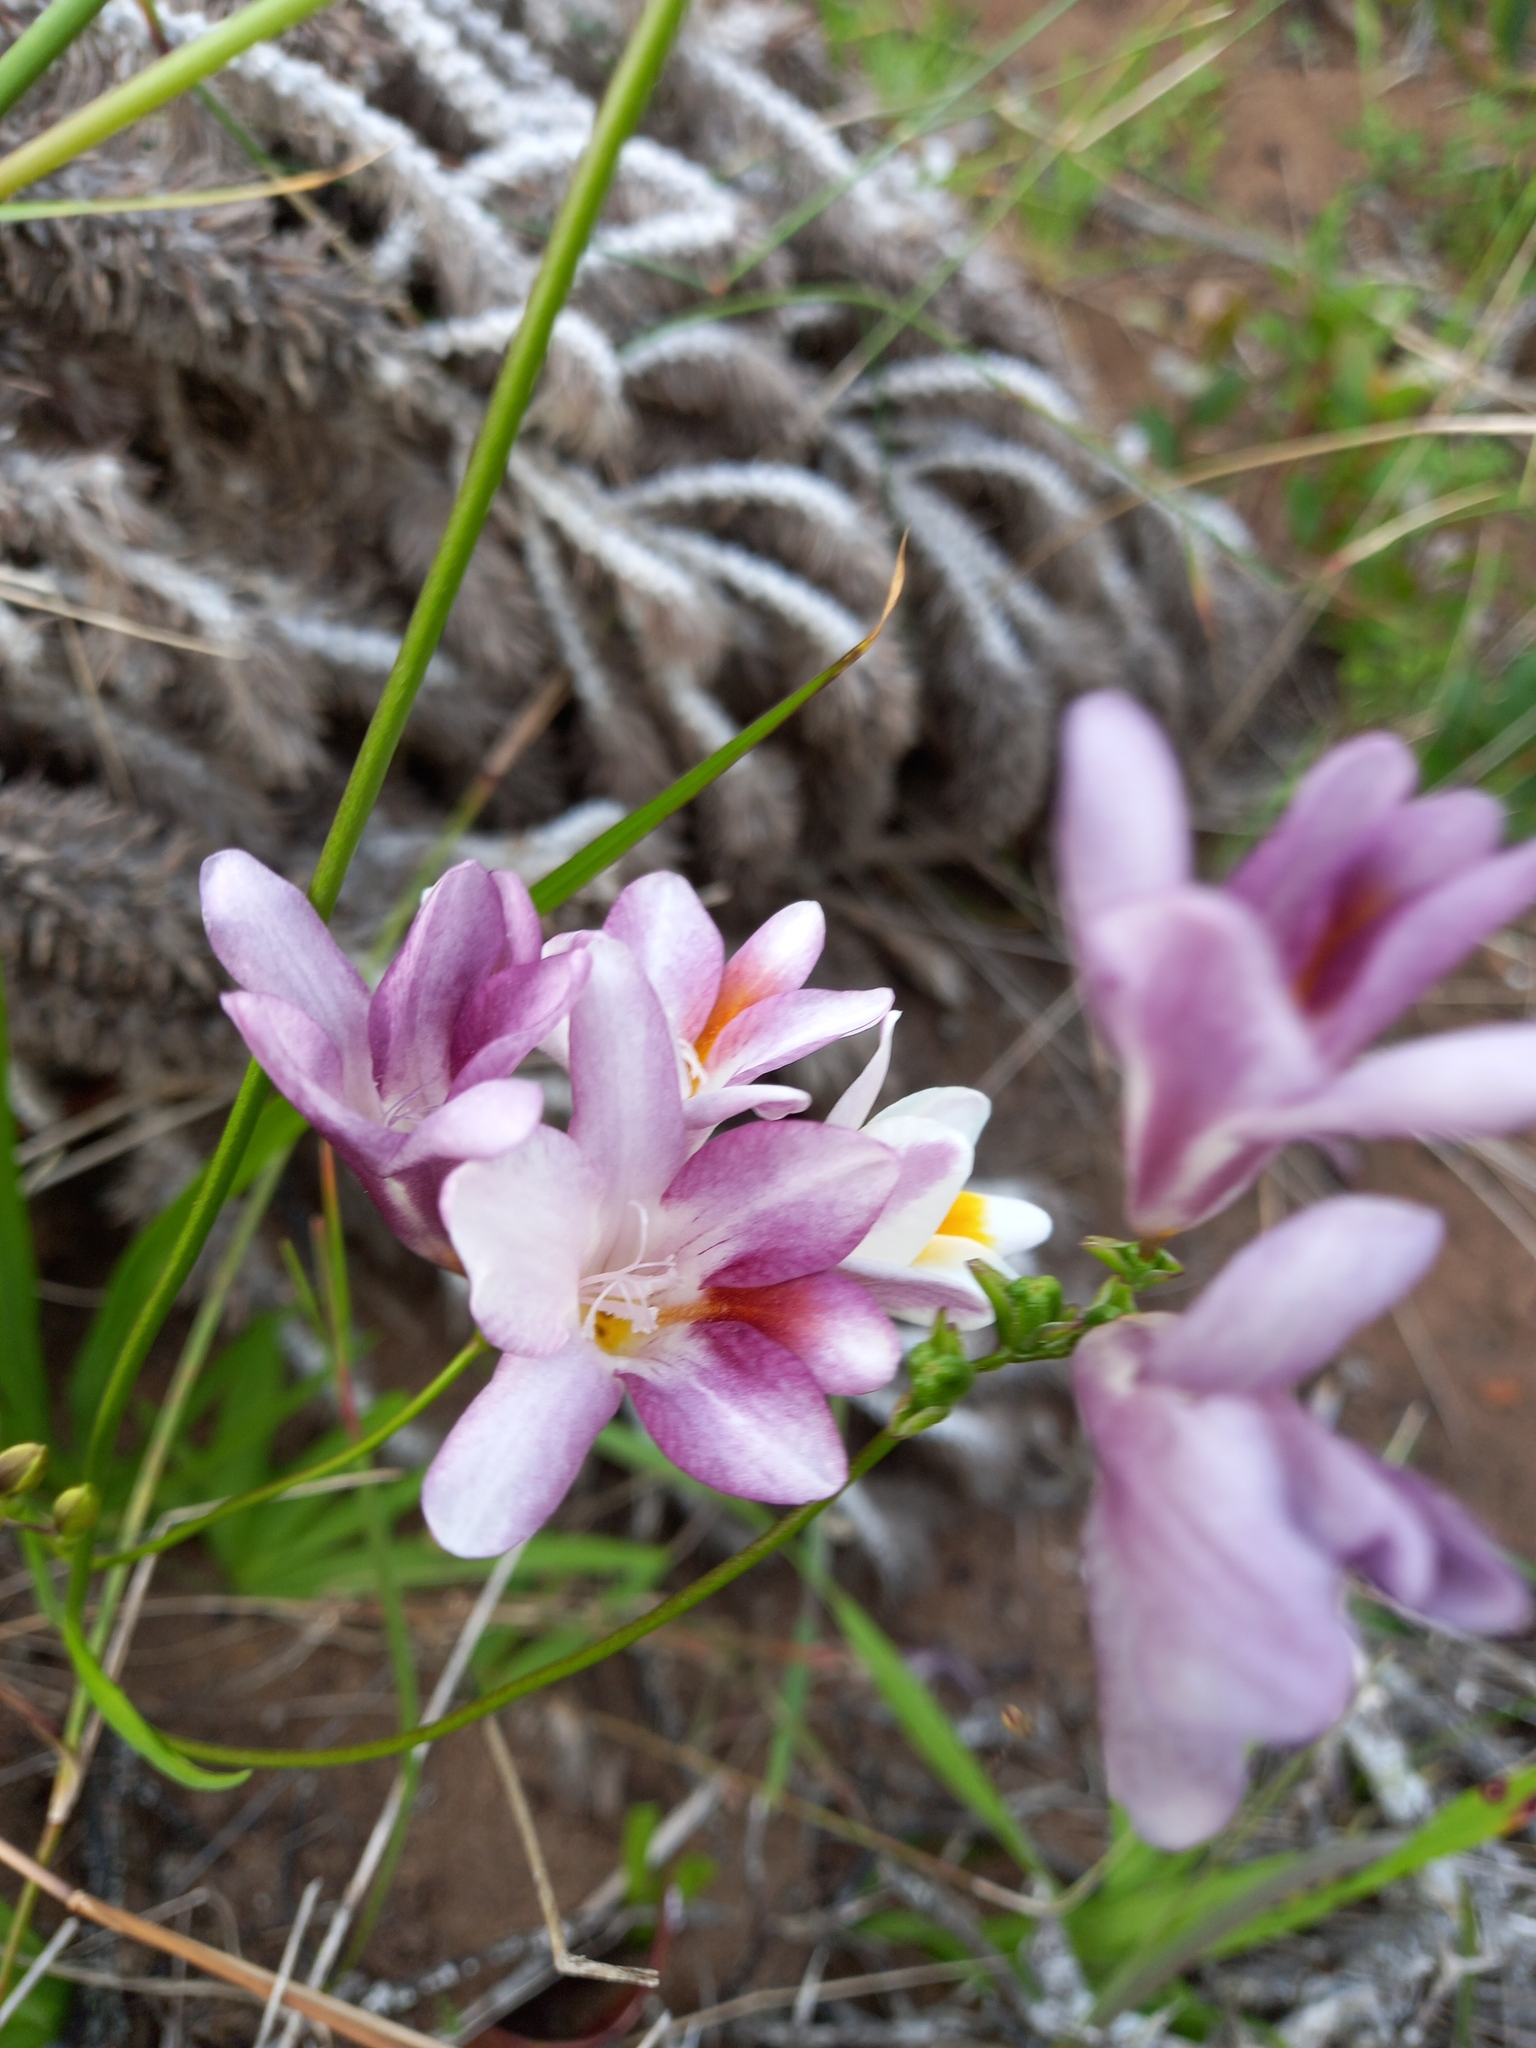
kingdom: Plantae
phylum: Tracheophyta
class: Liliopsida
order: Asparagales
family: Iridaceae
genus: Freesia
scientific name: Freesia leichtlinii
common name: Freesia
